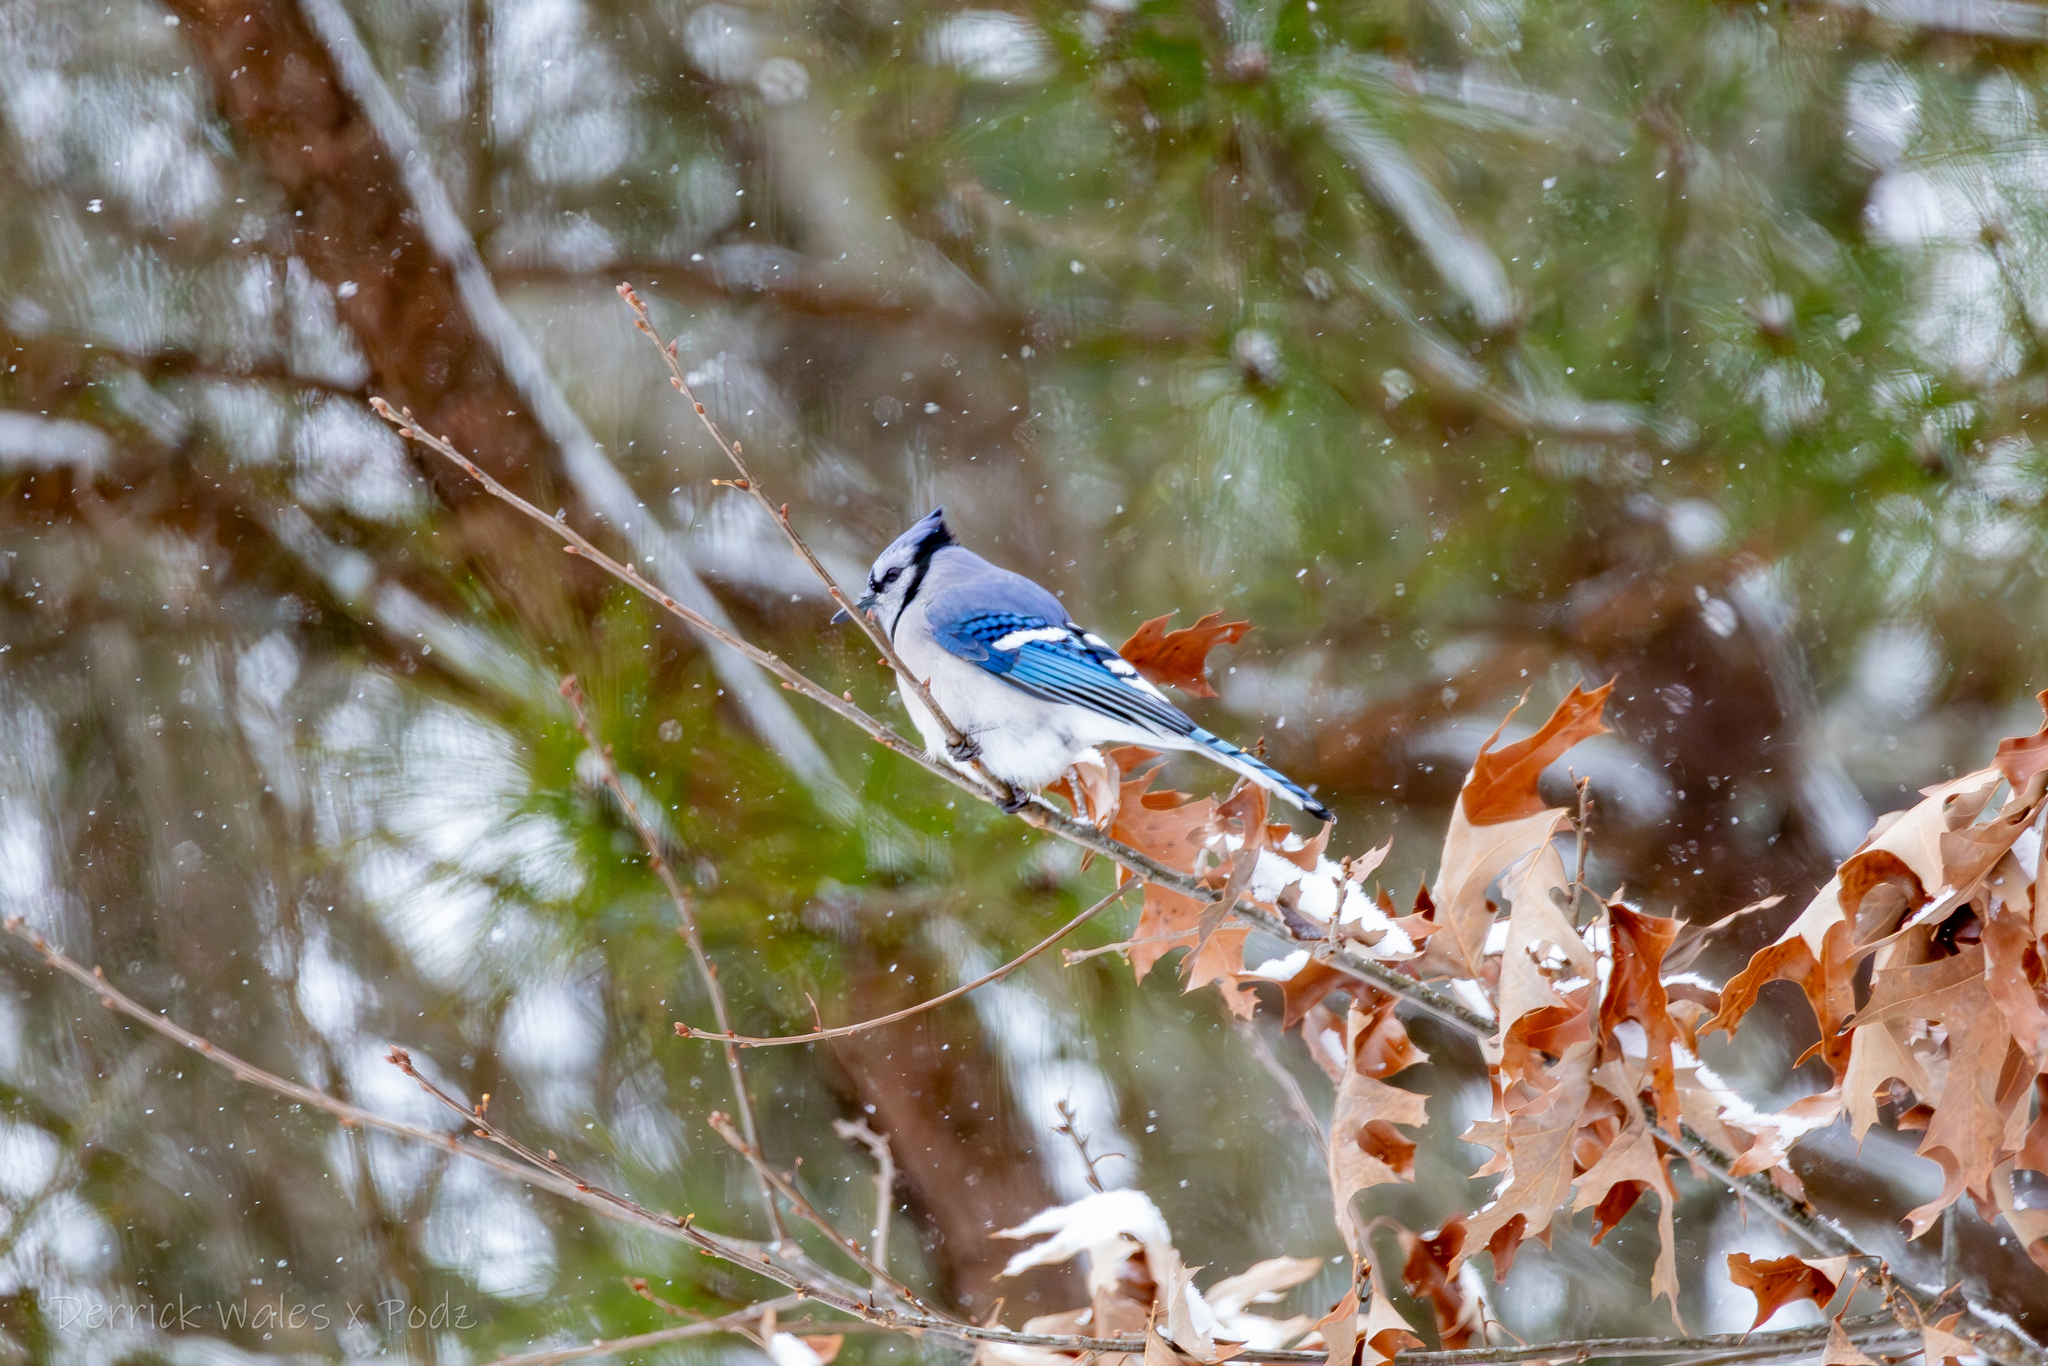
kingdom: Animalia
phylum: Chordata
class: Aves
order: Passeriformes
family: Corvidae
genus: Cyanocitta
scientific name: Cyanocitta cristata
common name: Blue jay
